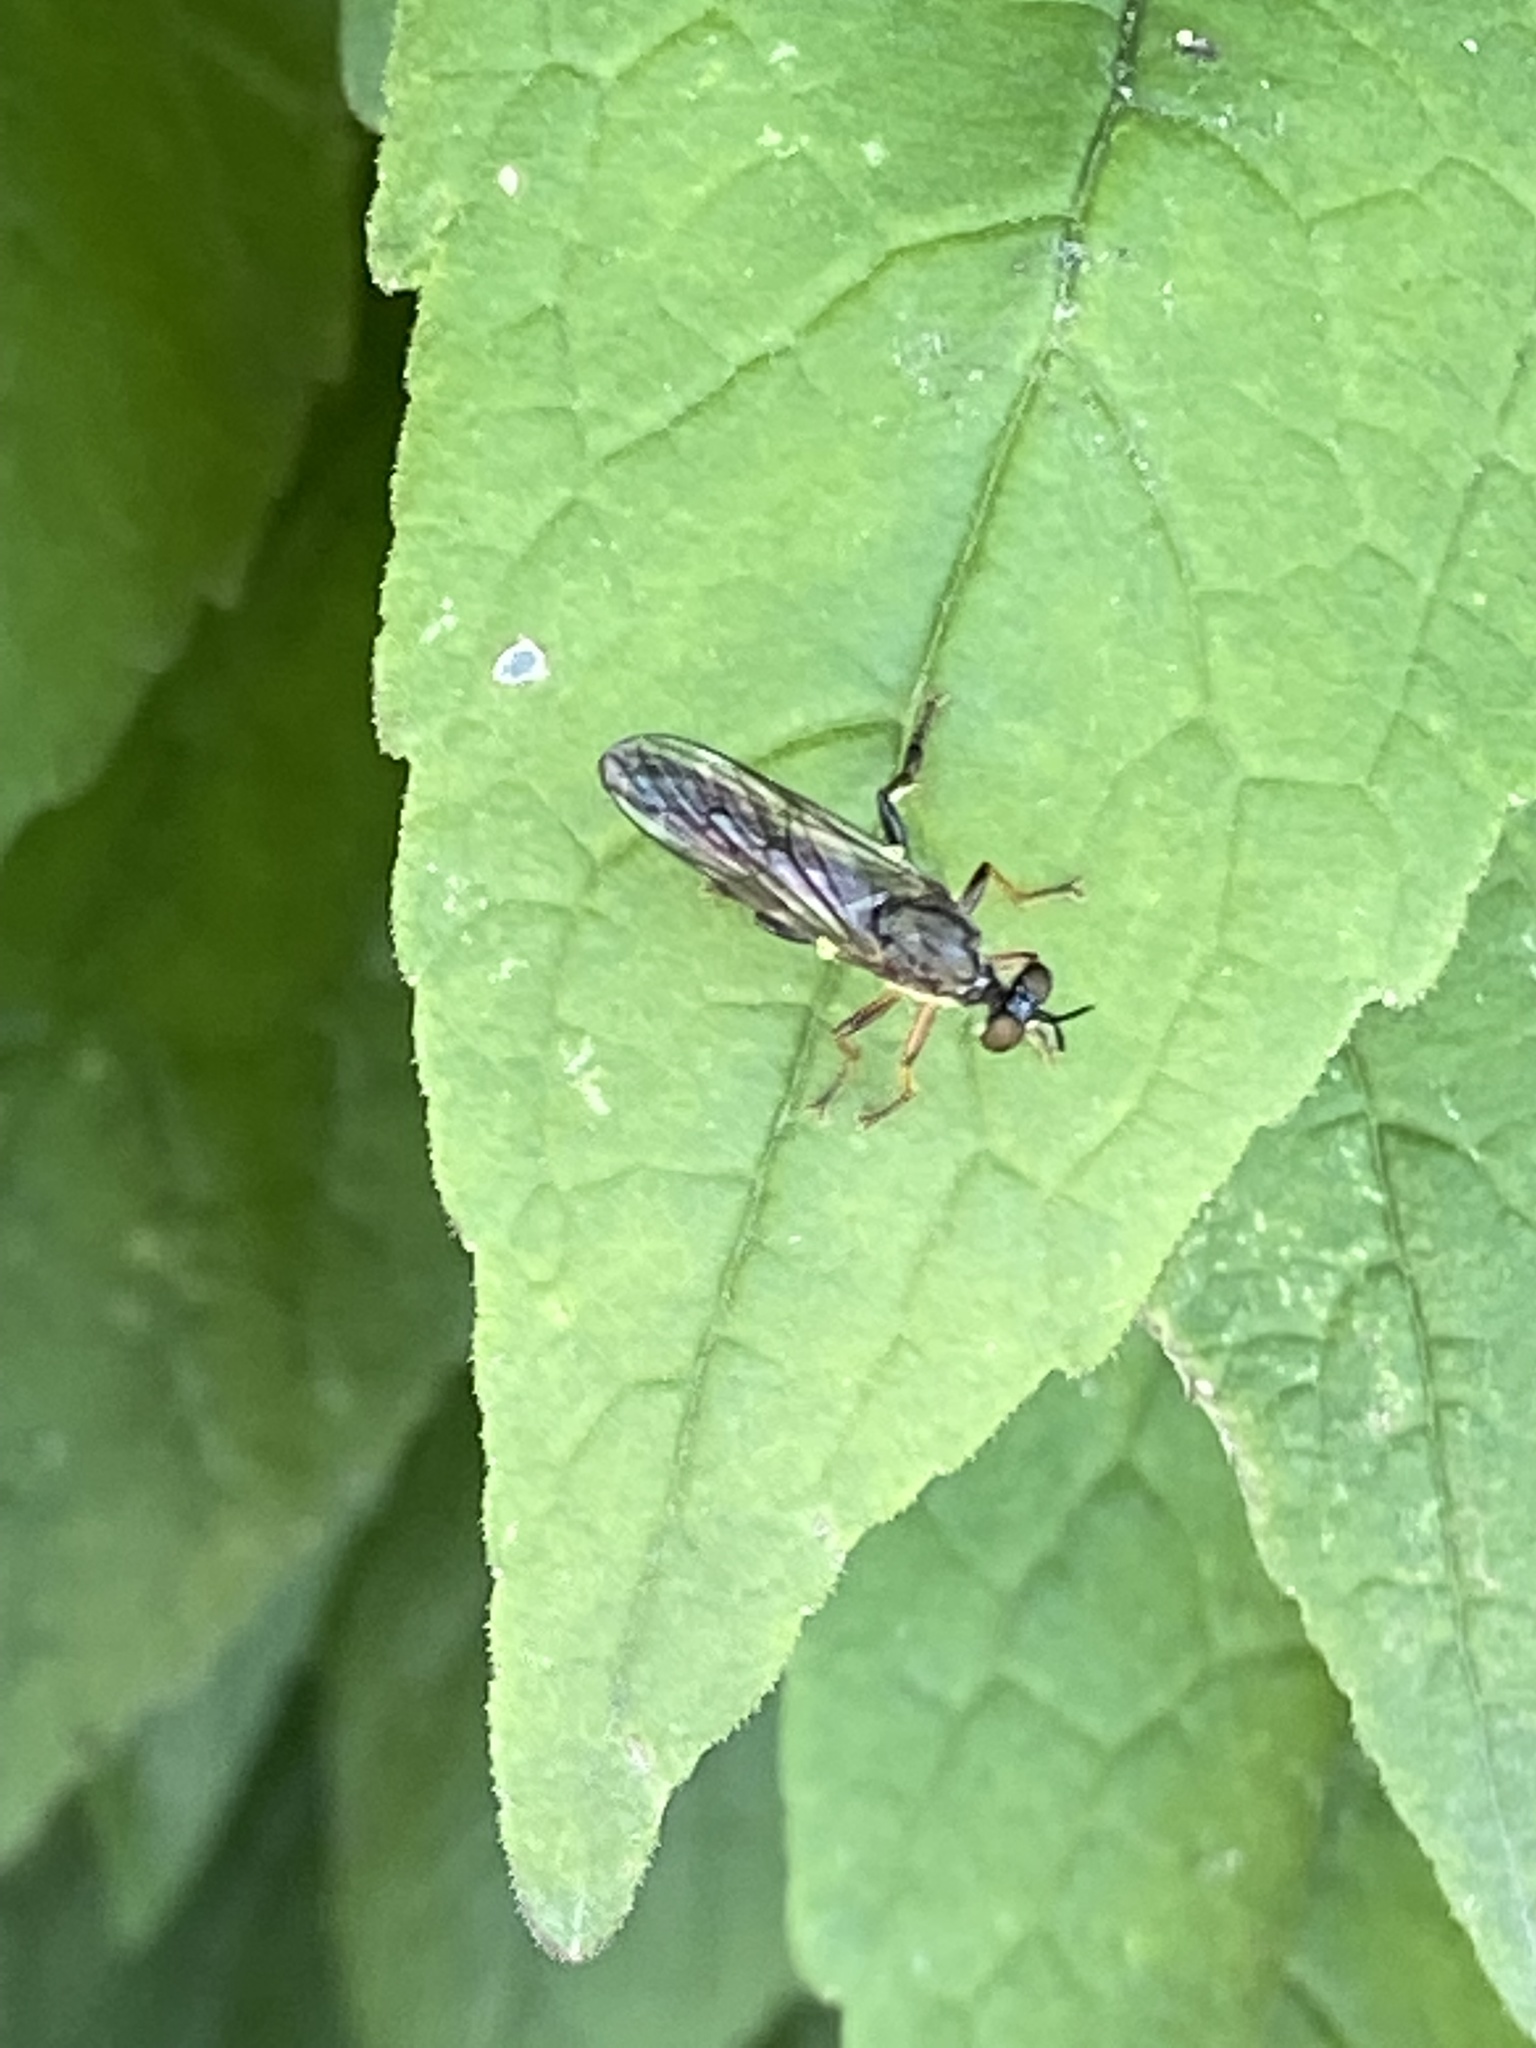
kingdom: Animalia
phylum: Arthropoda
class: Insecta
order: Diptera
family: Asilidae
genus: Dioctria
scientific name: Dioctria hyalipennis
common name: Stripe-legged robberfly
